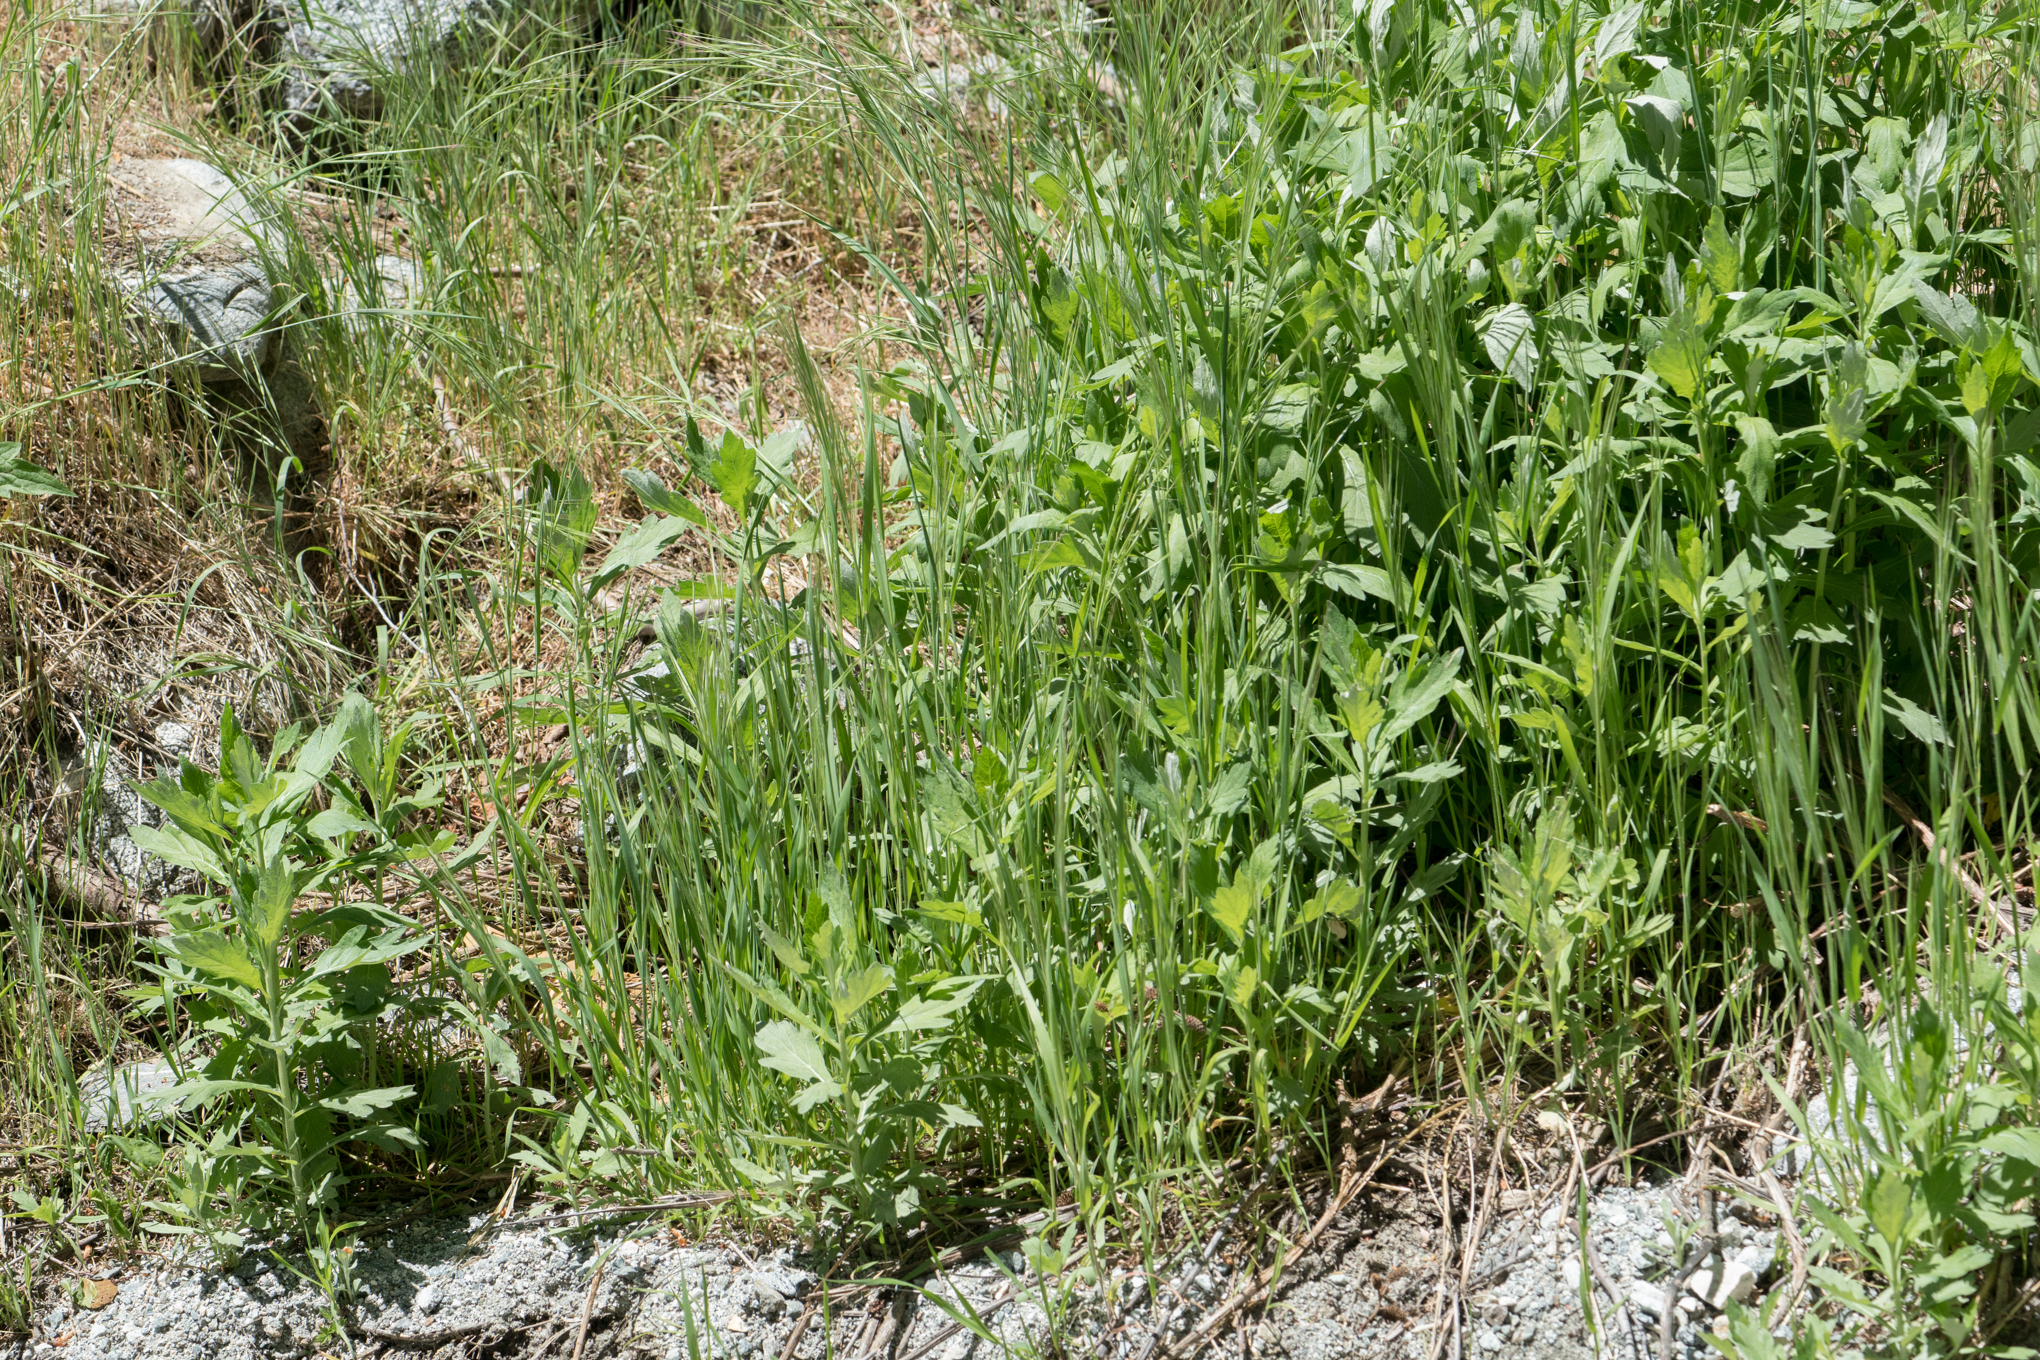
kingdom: Plantae
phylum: Tracheophyta
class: Magnoliopsida
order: Asterales
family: Asteraceae
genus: Artemisia
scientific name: Artemisia douglasiana
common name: Northwest mugwort
